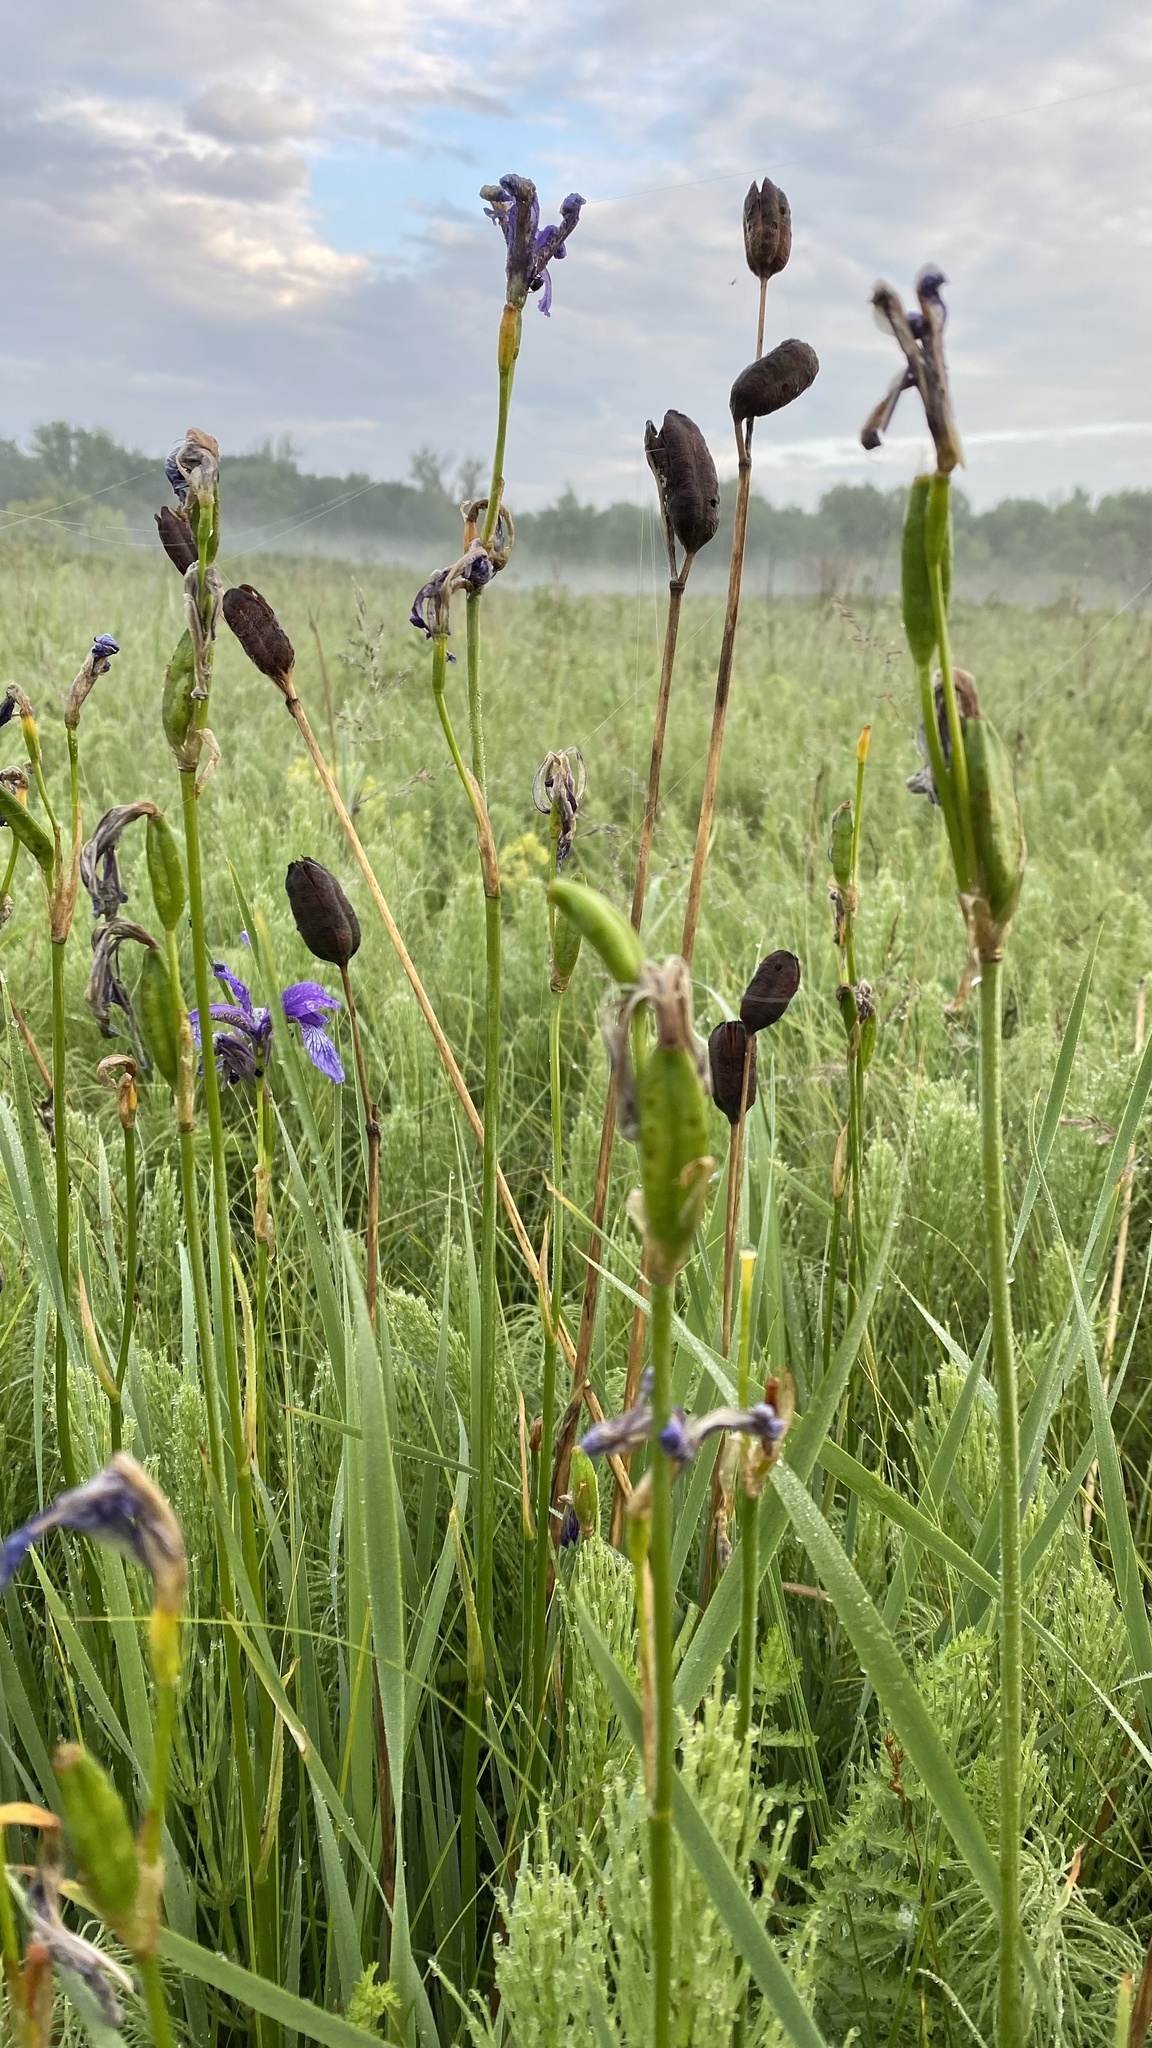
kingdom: Plantae
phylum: Tracheophyta
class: Liliopsida
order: Asparagales
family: Iridaceae
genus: Iris
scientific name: Iris sibirica
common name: Siberian iris
